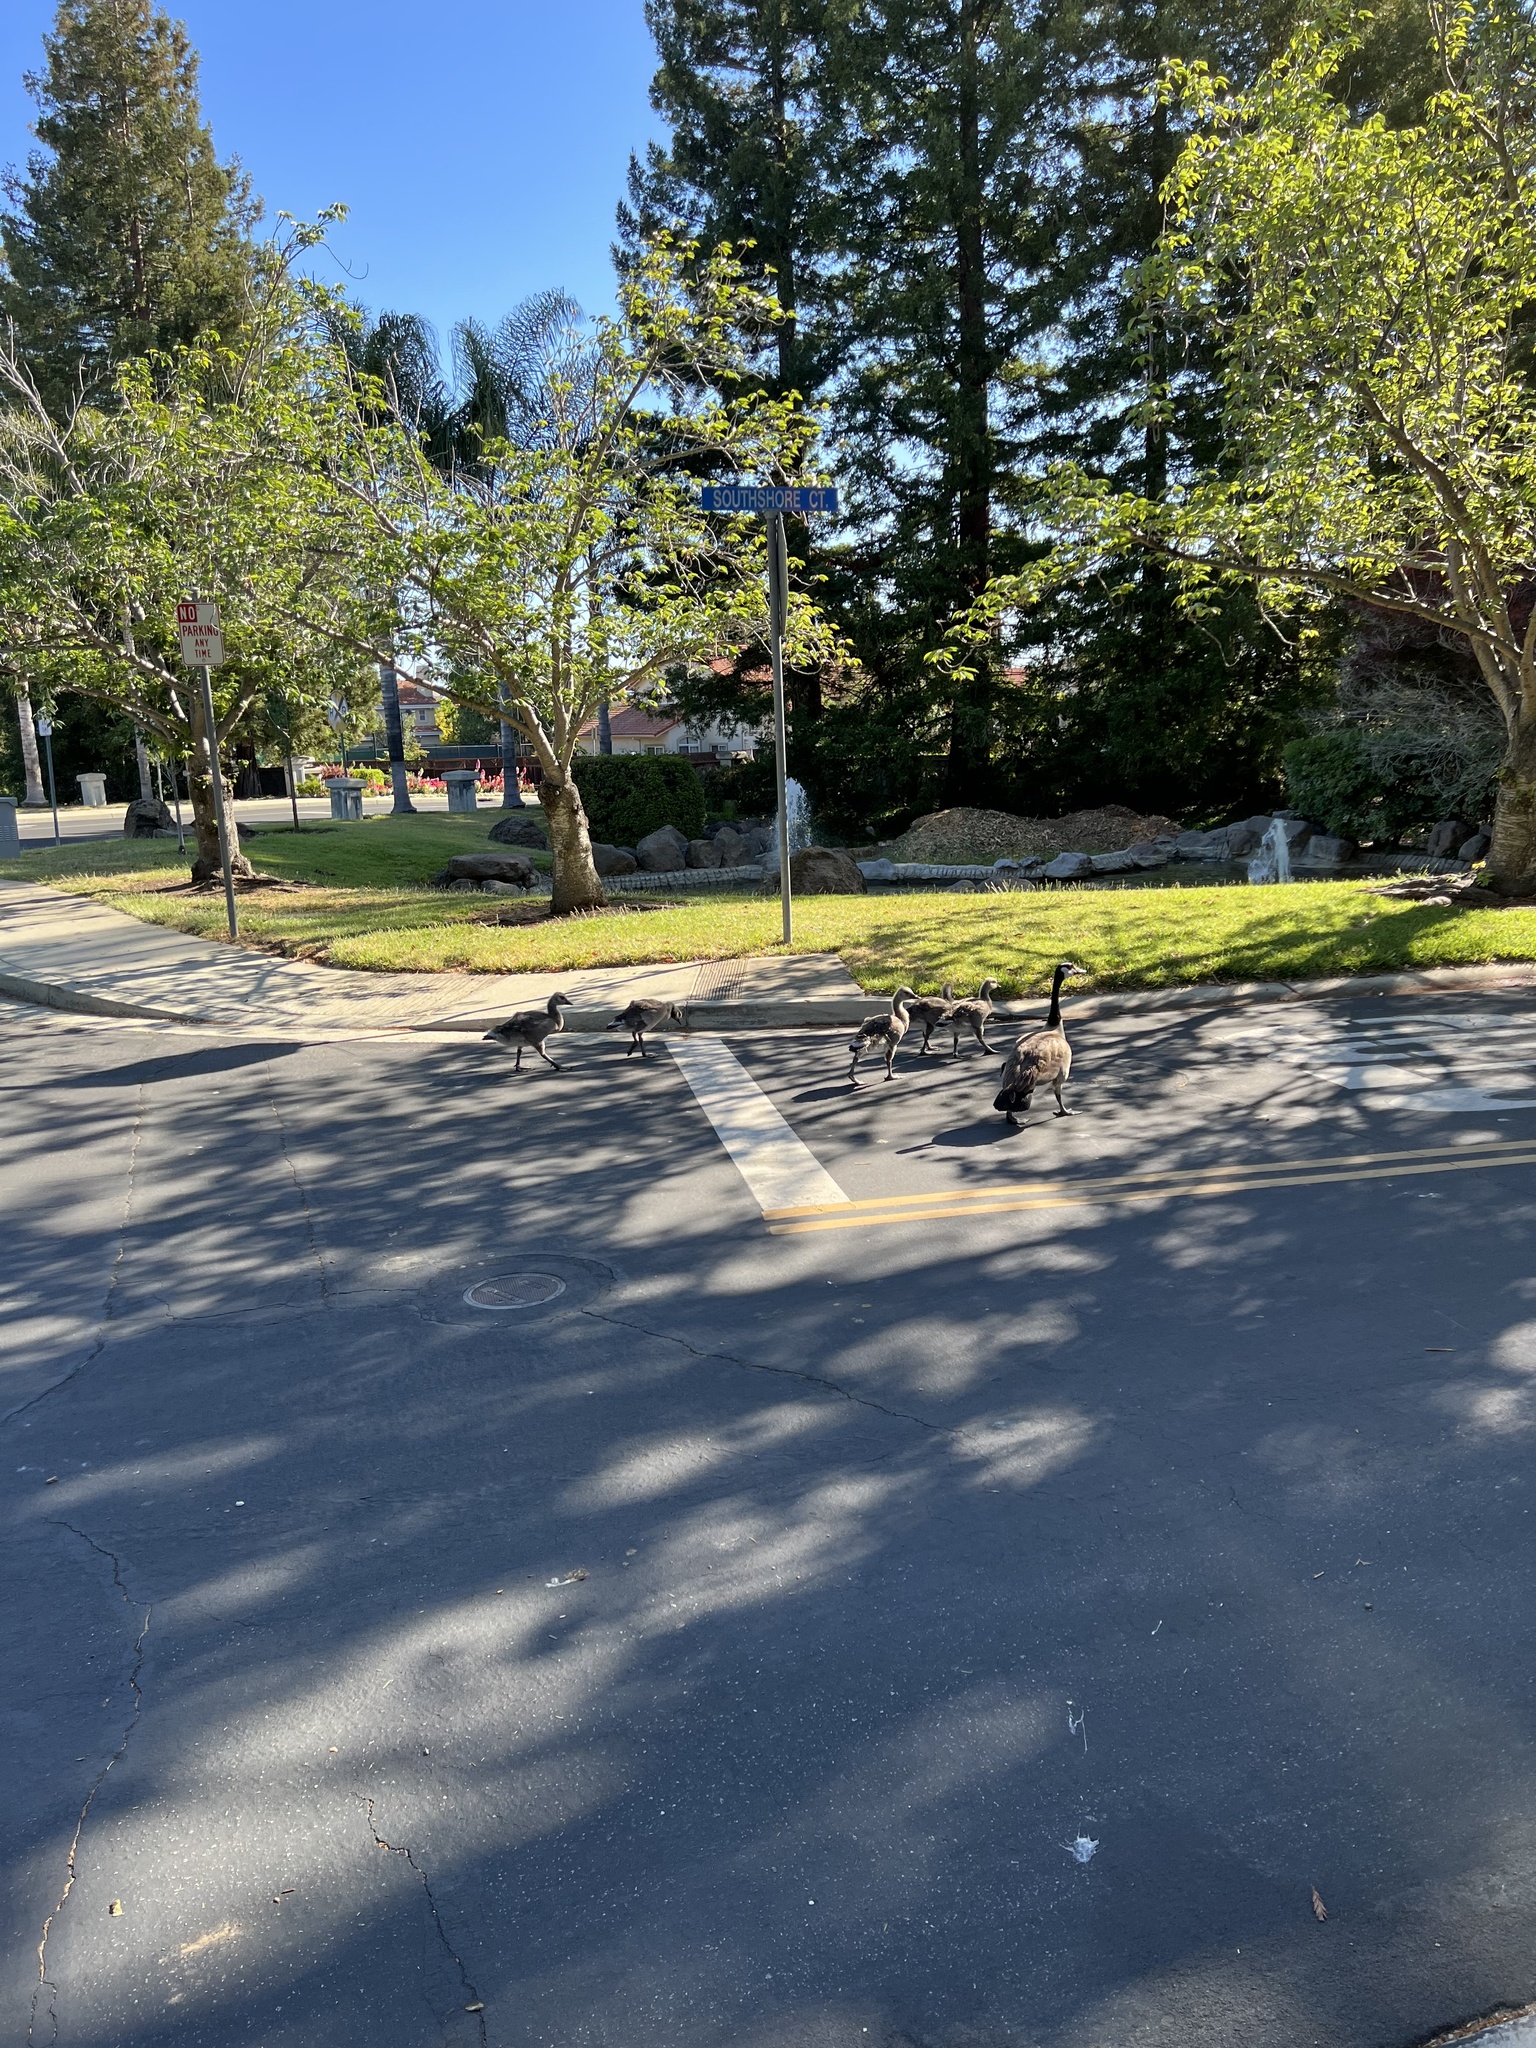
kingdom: Animalia
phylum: Chordata
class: Aves
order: Anseriformes
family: Anatidae
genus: Branta
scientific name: Branta canadensis
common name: Canada goose
